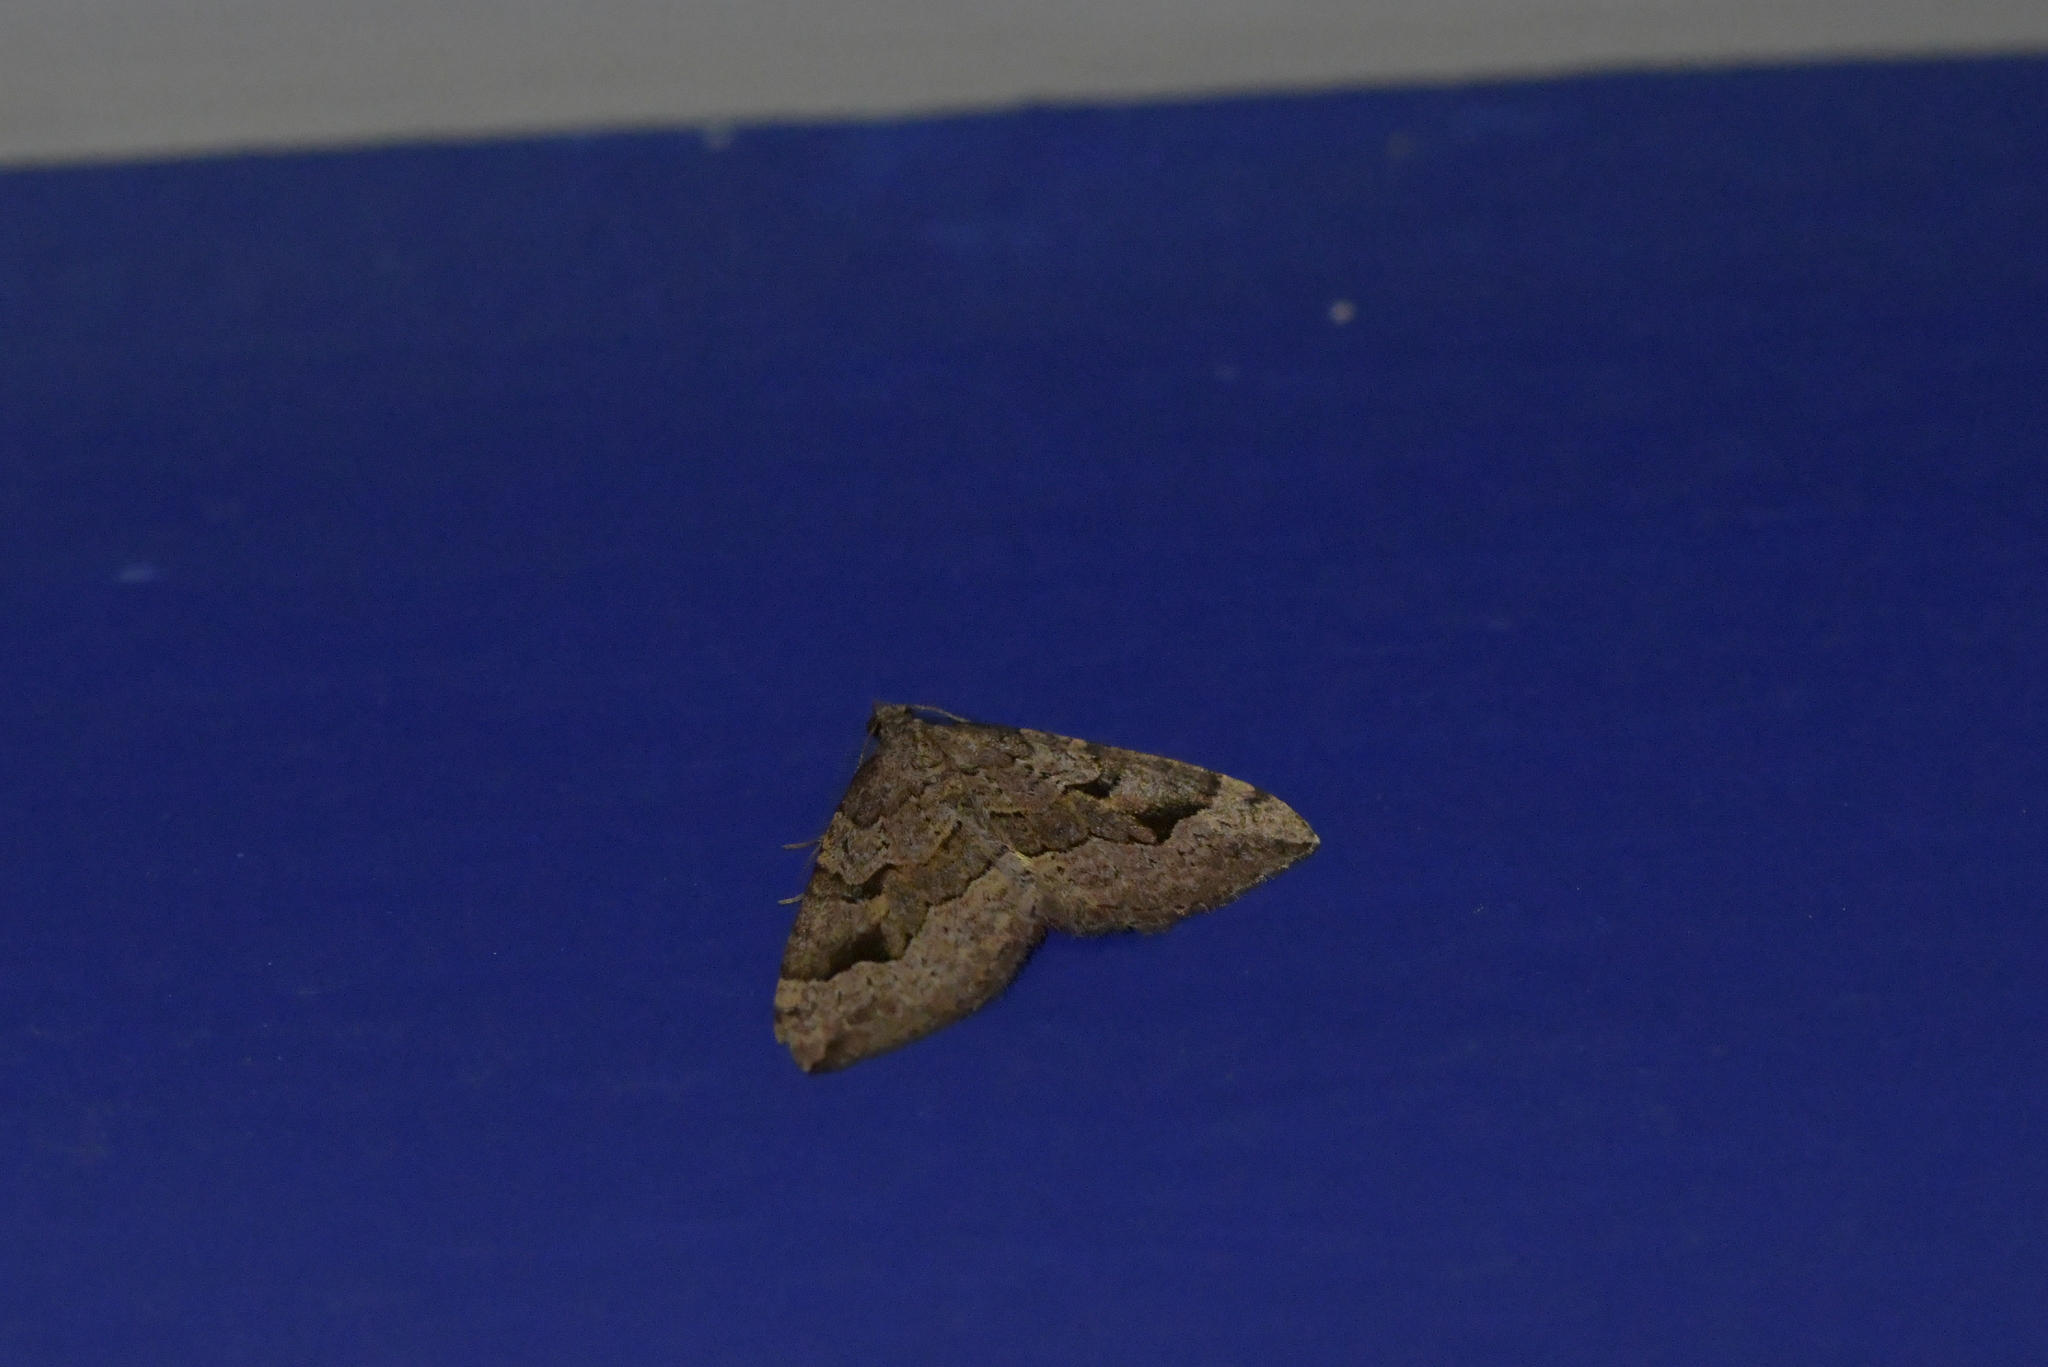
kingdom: Animalia
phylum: Arthropoda
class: Insecta
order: Lepidoptera
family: Geometridae
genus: Epyaxa
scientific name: Epyaxa rosearia
